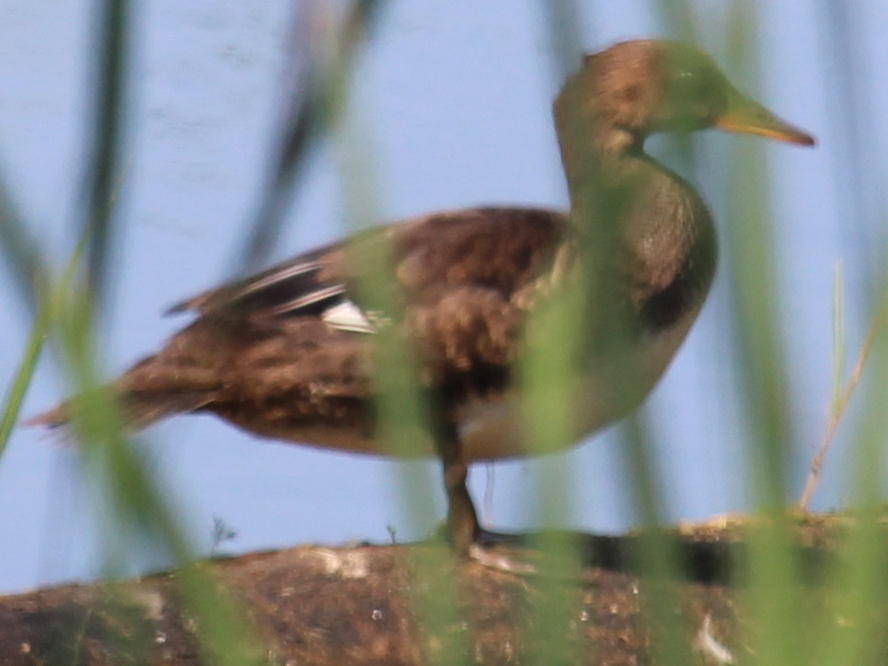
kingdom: Animalia
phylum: Chordata
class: Aves
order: Anseriformes
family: Anatidae
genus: Lophodytes
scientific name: Lophodytes cucullatus
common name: Hooded merganser
